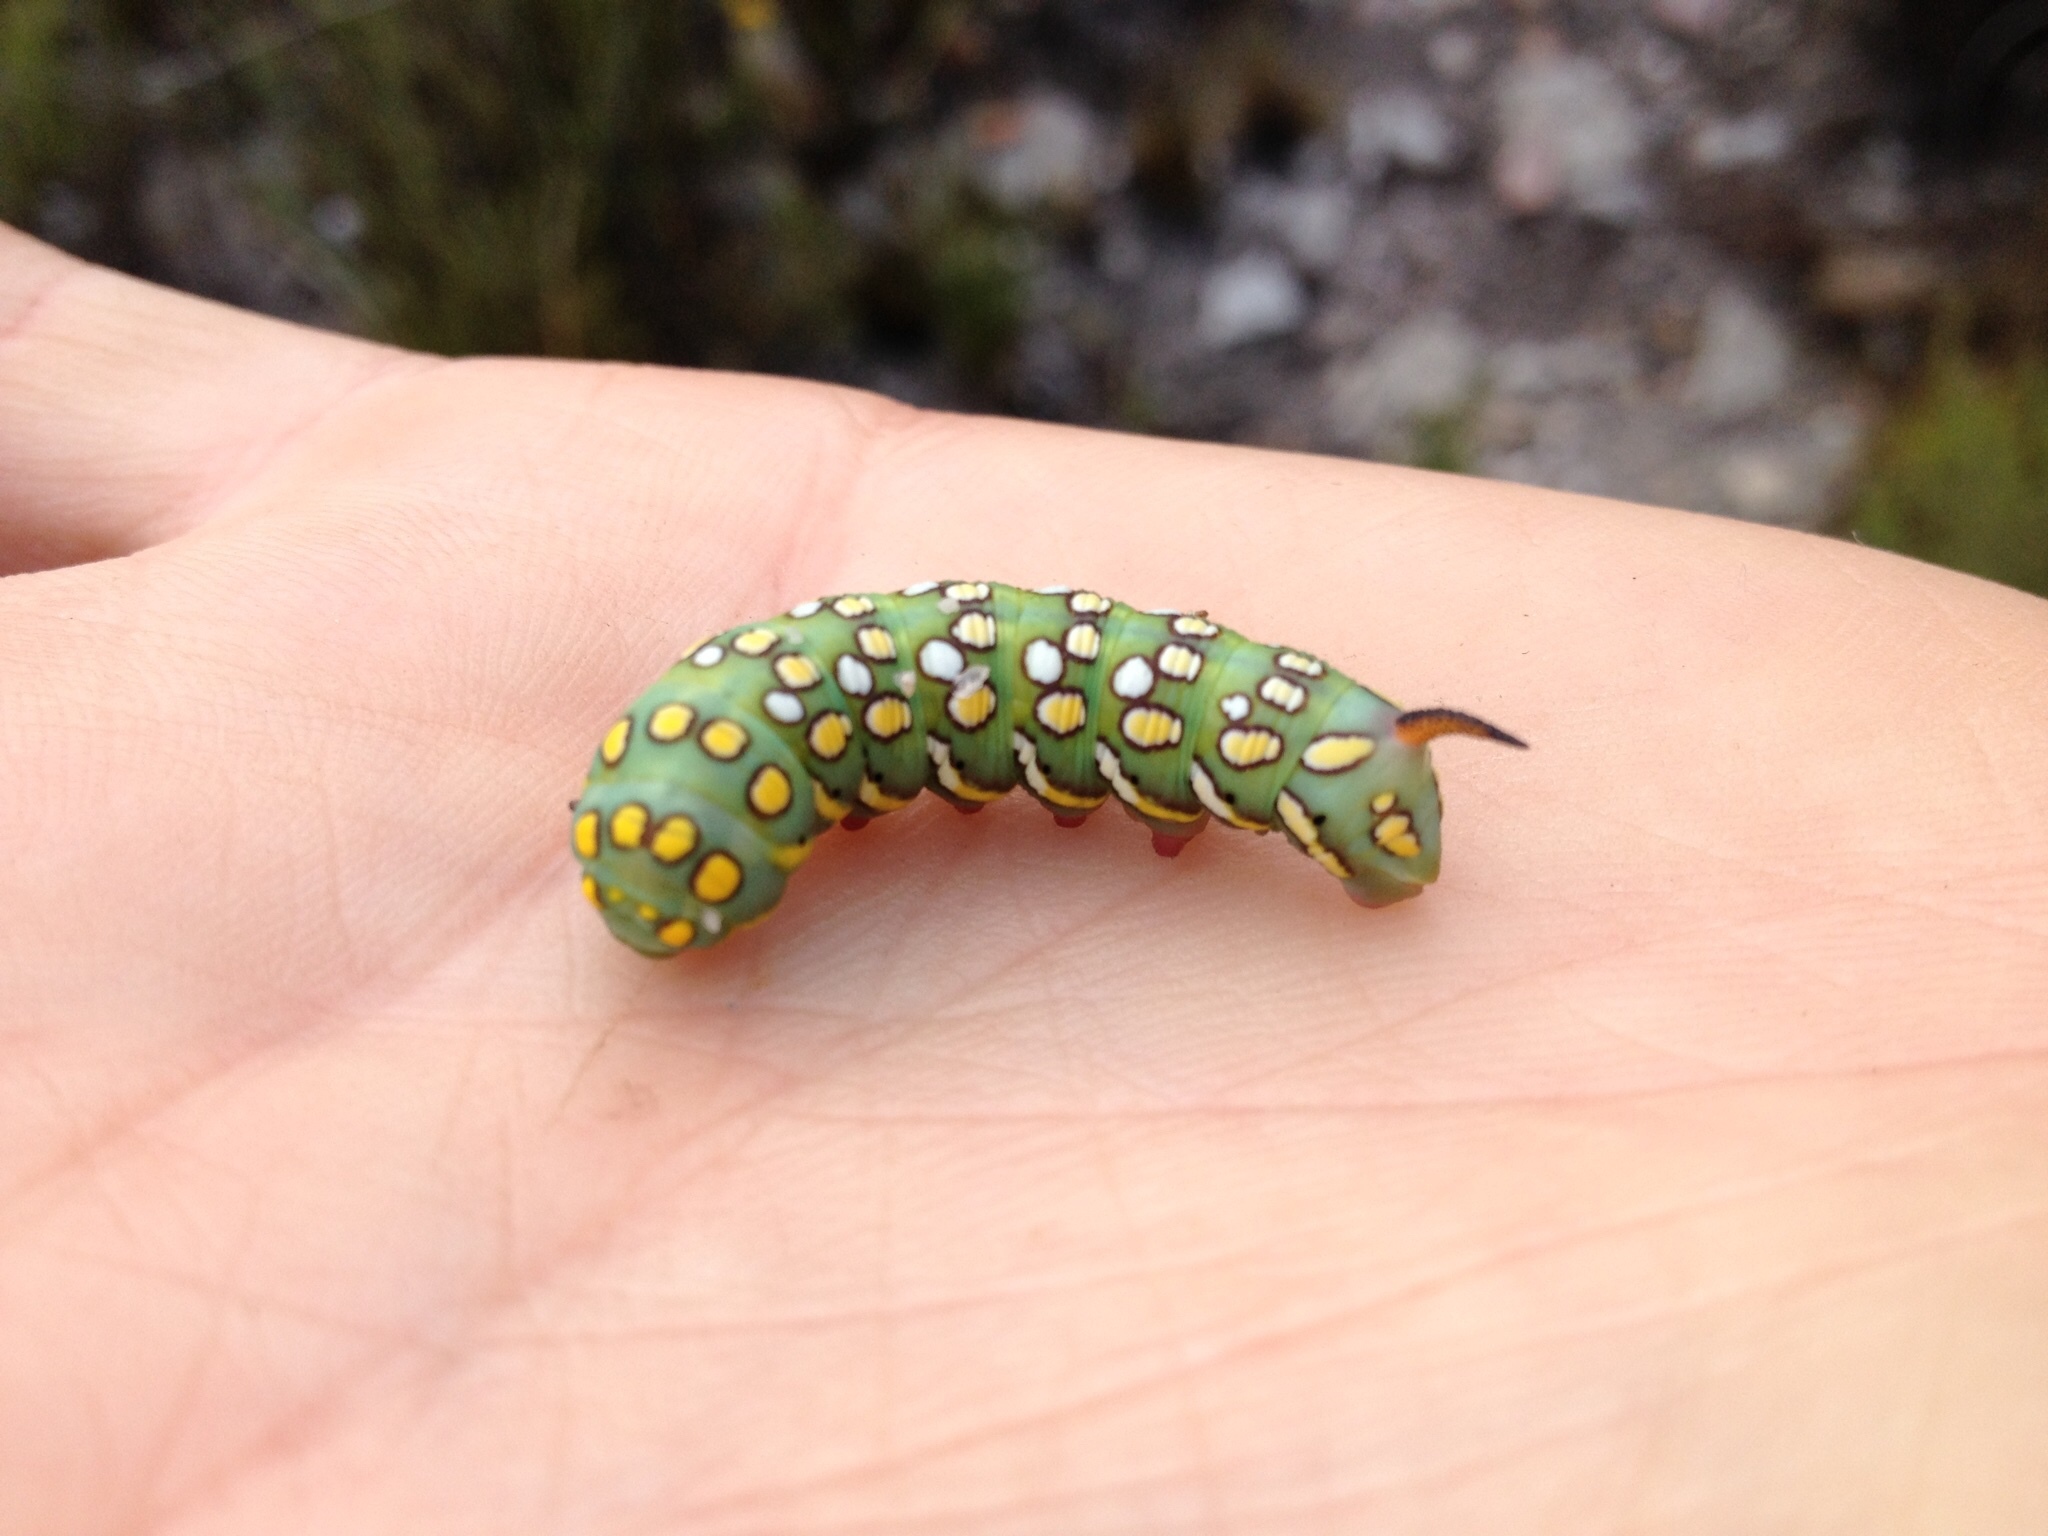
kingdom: Animalia
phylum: Arthropoda
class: Insecta
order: Lepidoptera
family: Sphingidae
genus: Temnora
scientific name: Temnora pylas
